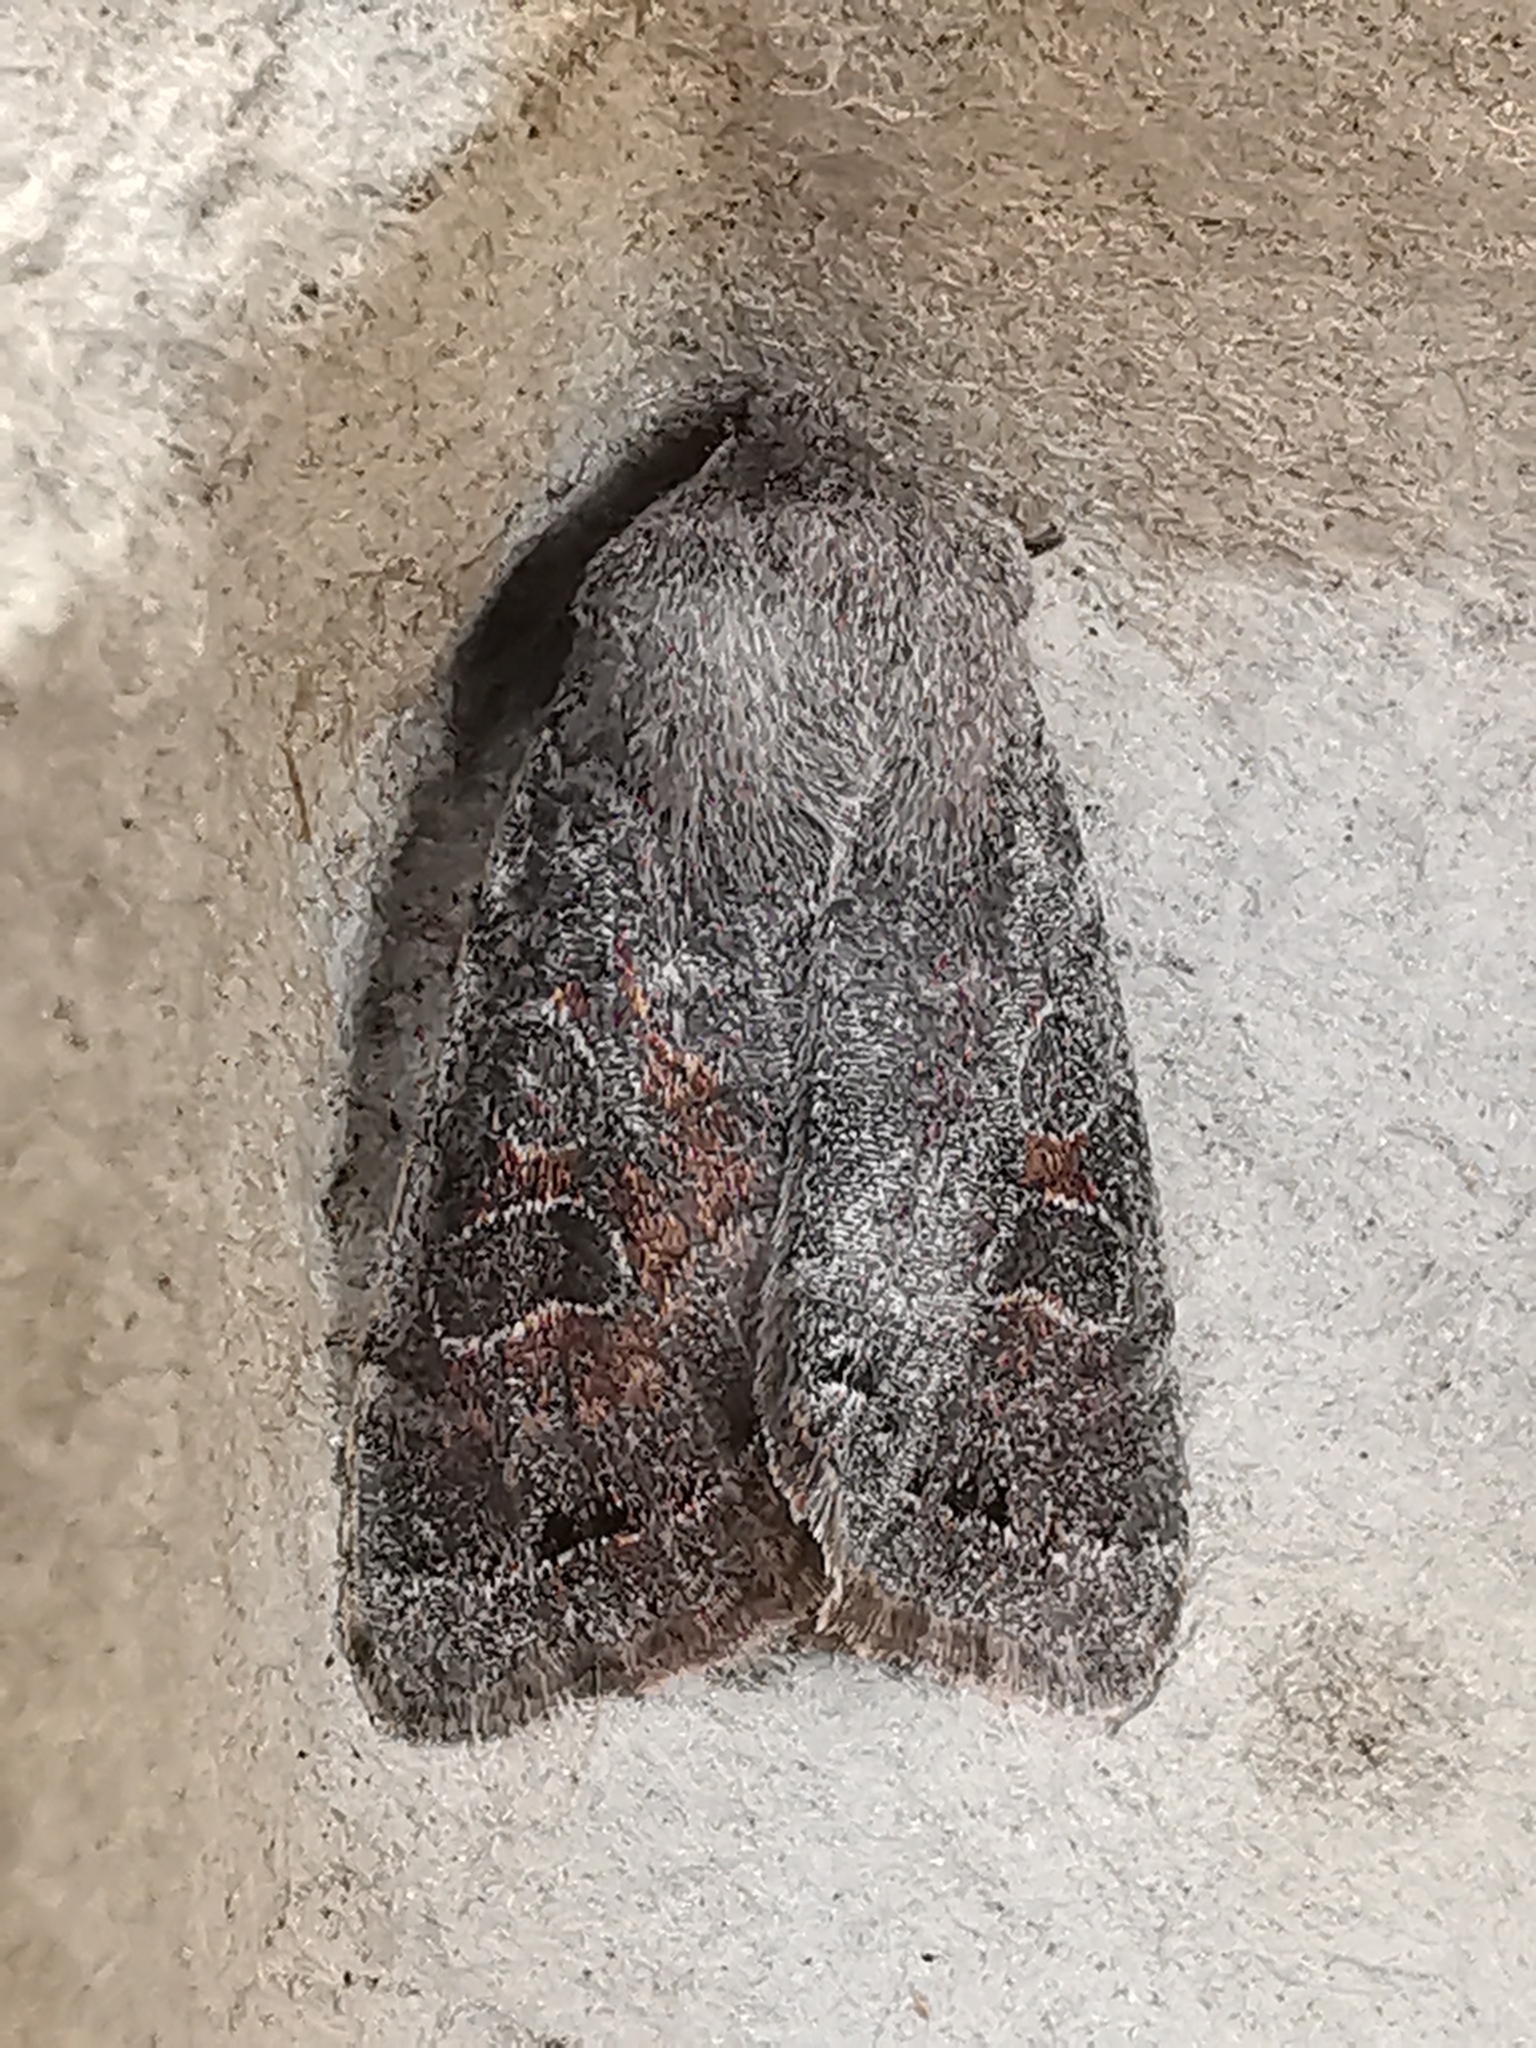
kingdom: Animalia
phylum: Arthropoda
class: Insecta
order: Lepidoptera
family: Noctuidae
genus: Orthosia
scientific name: Orthosia populeti
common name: Lead-coloured drab
